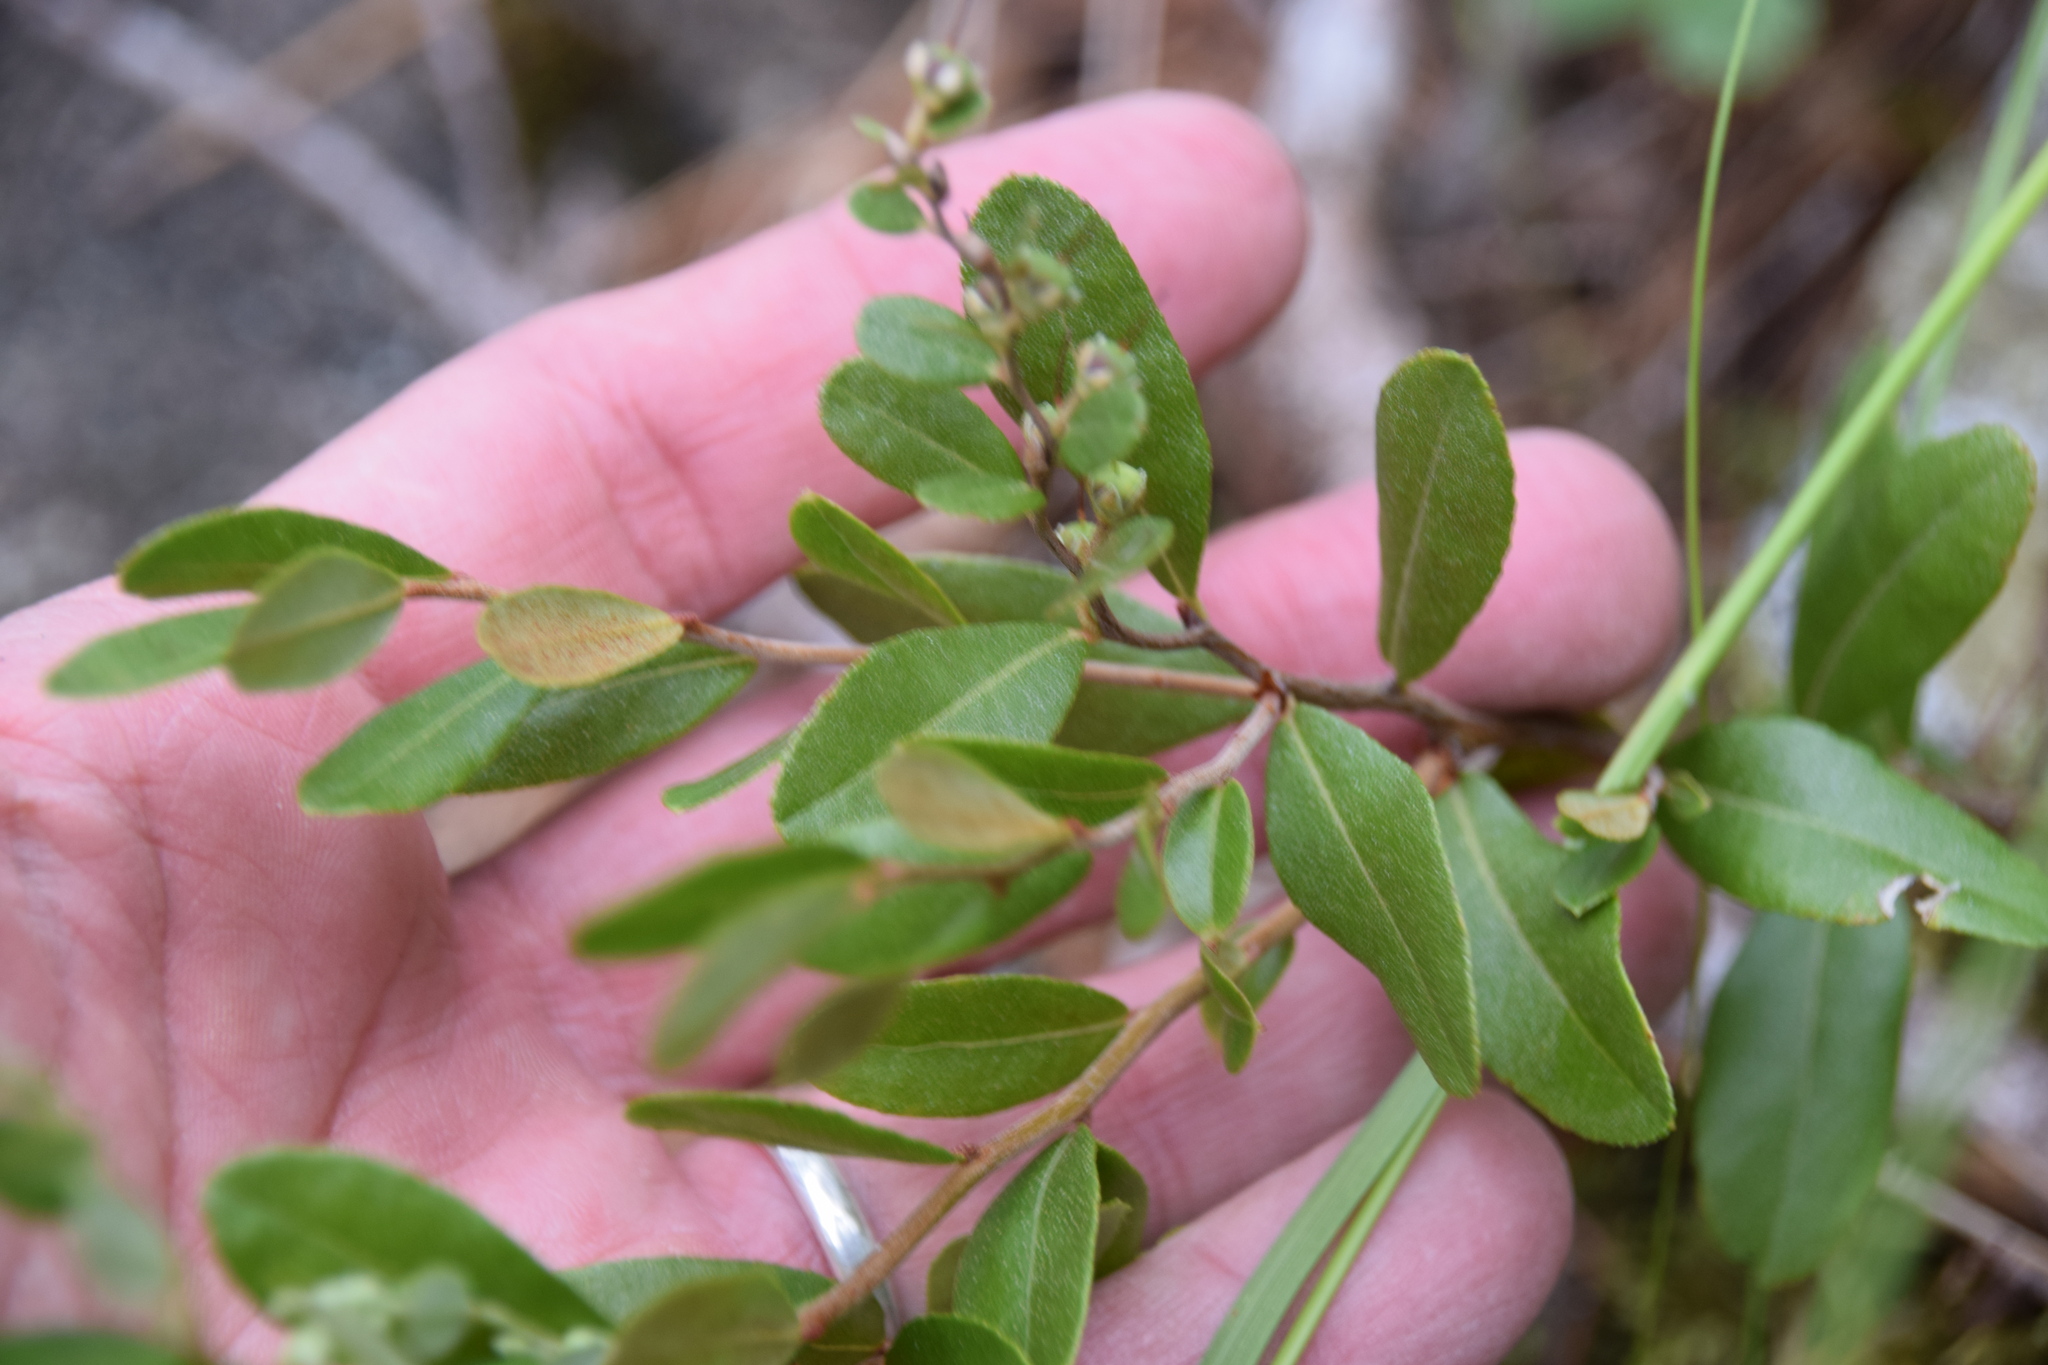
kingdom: Plantae
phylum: Tracheophyta
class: Magnoliopsida
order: Ericales
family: Ericaceae
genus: Chamaedaphne
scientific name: Chamaedaphne calyculata
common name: Leatherleaf
